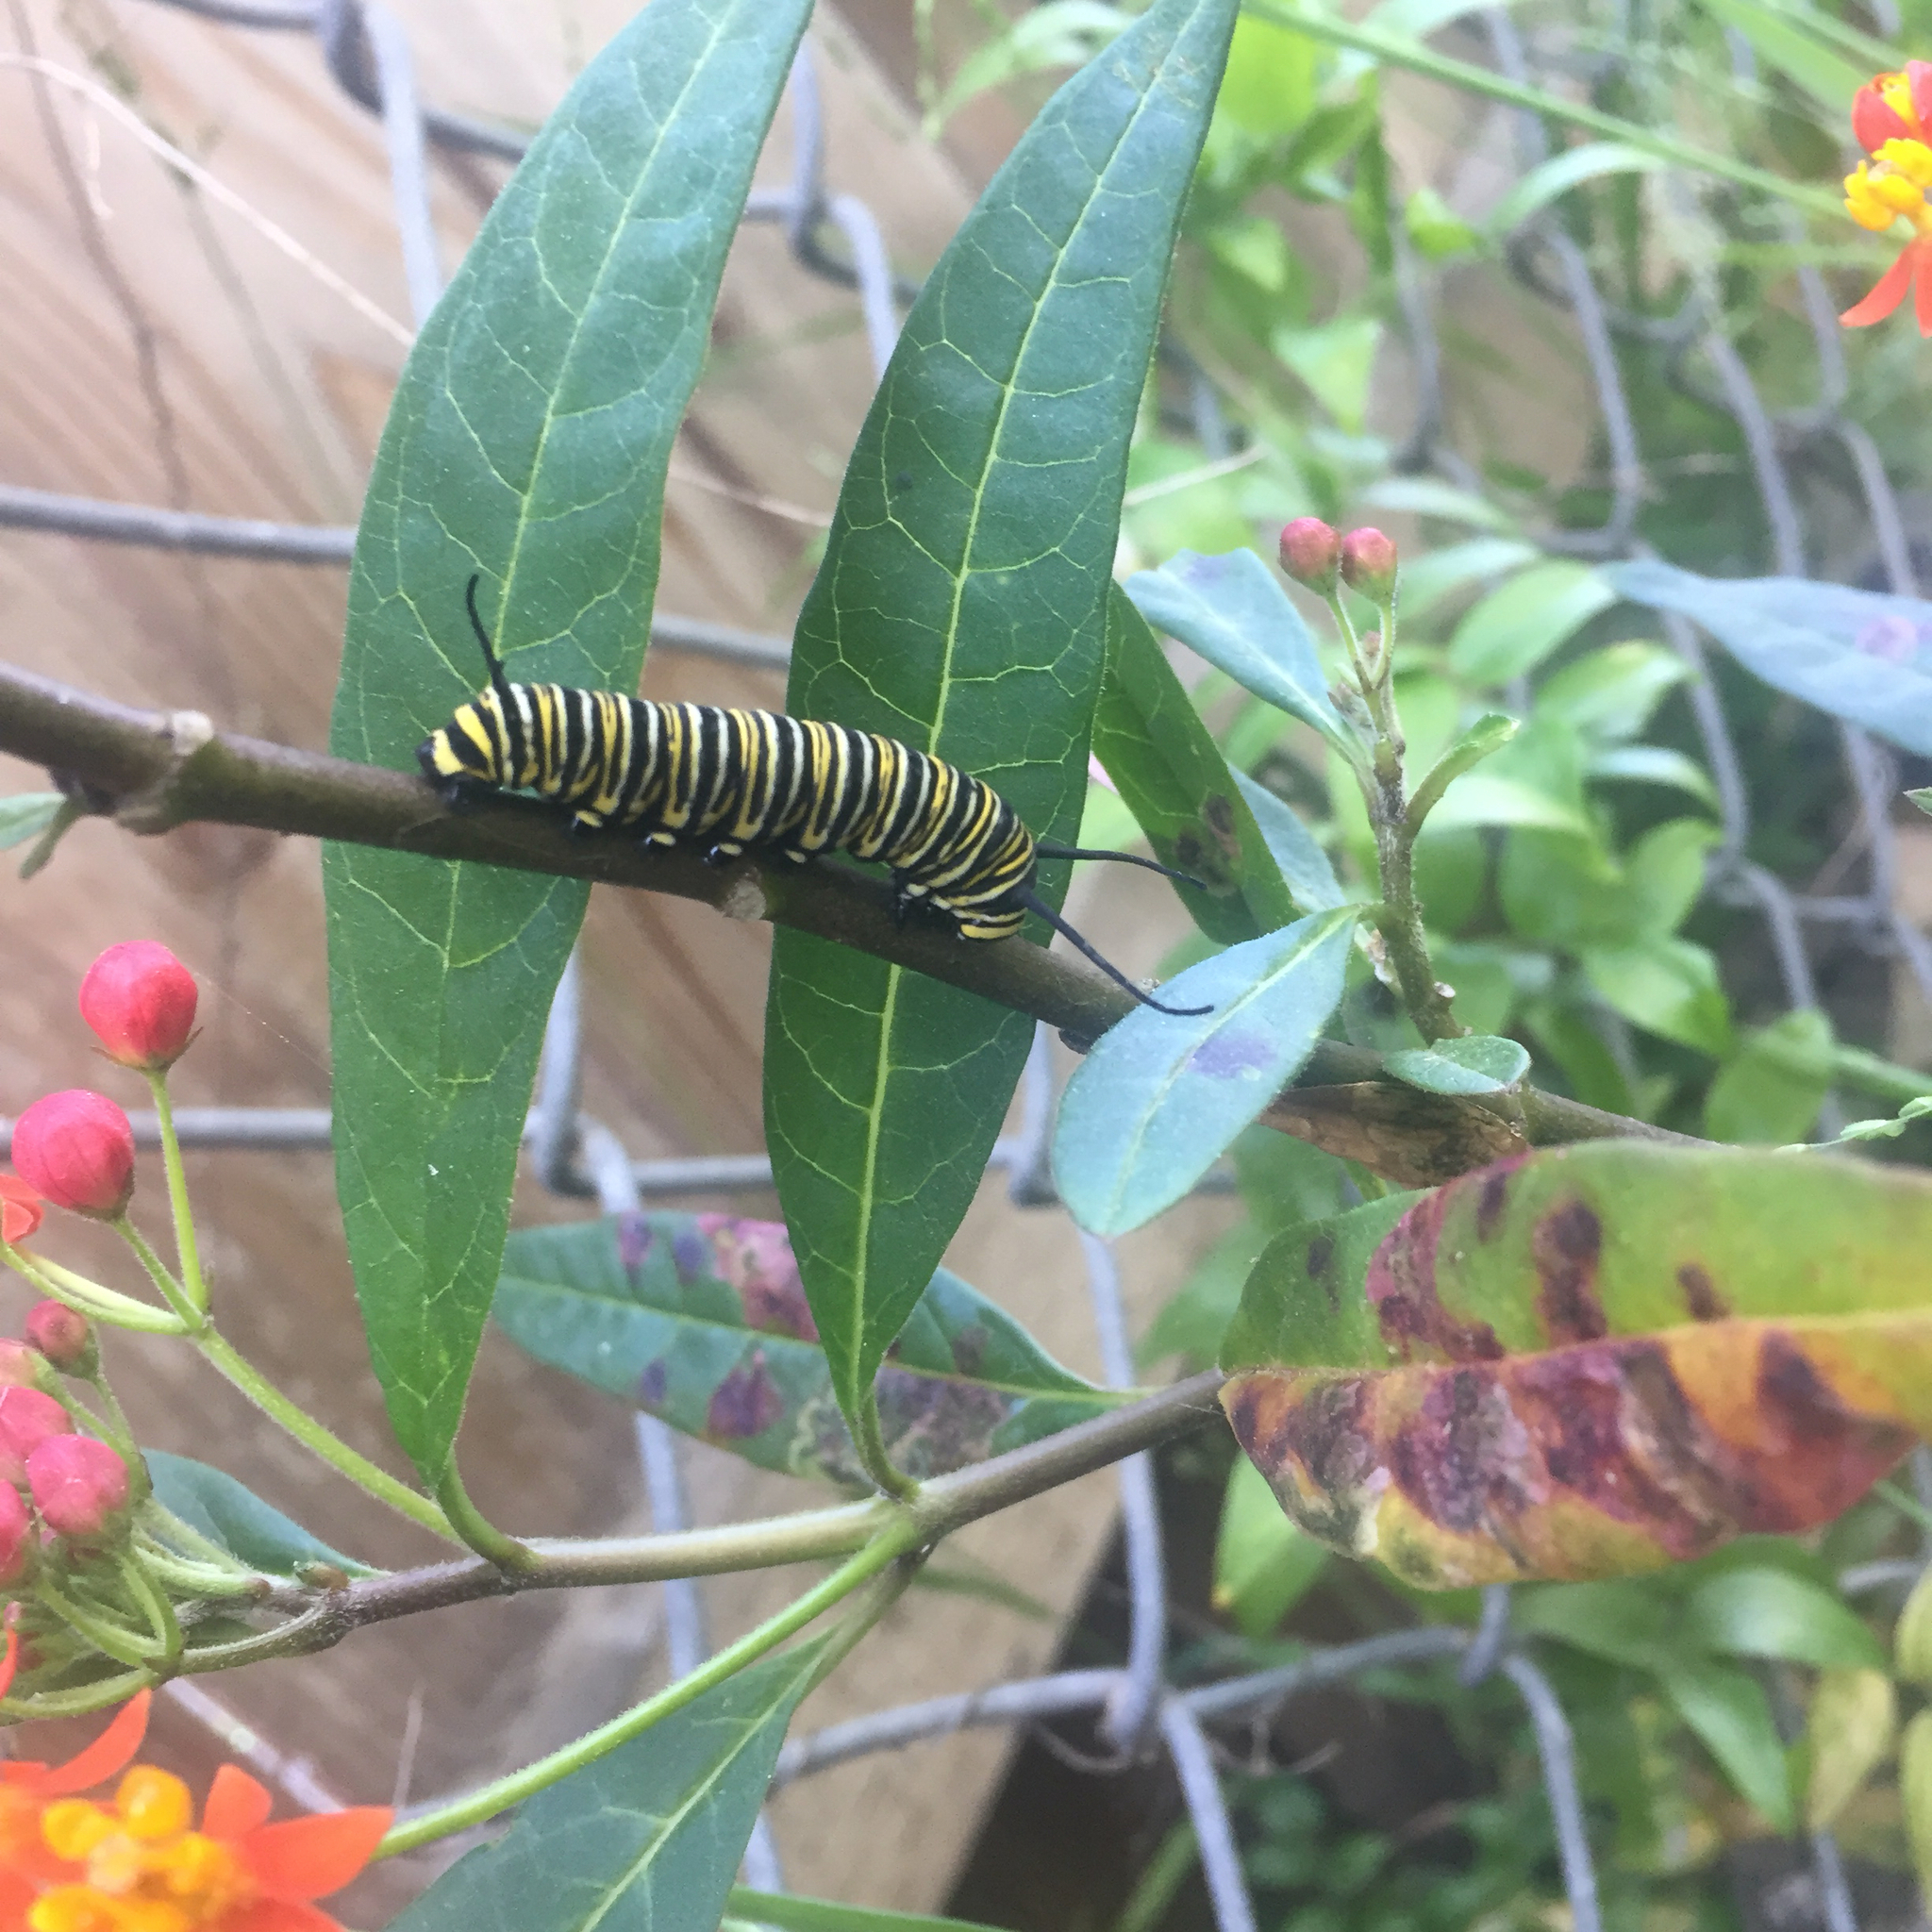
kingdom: Animalia
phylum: Arthropoda
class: Insecta
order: Lepidoptera
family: Nymphalidae
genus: Danaus
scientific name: Danaus plexippus
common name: Monarch
